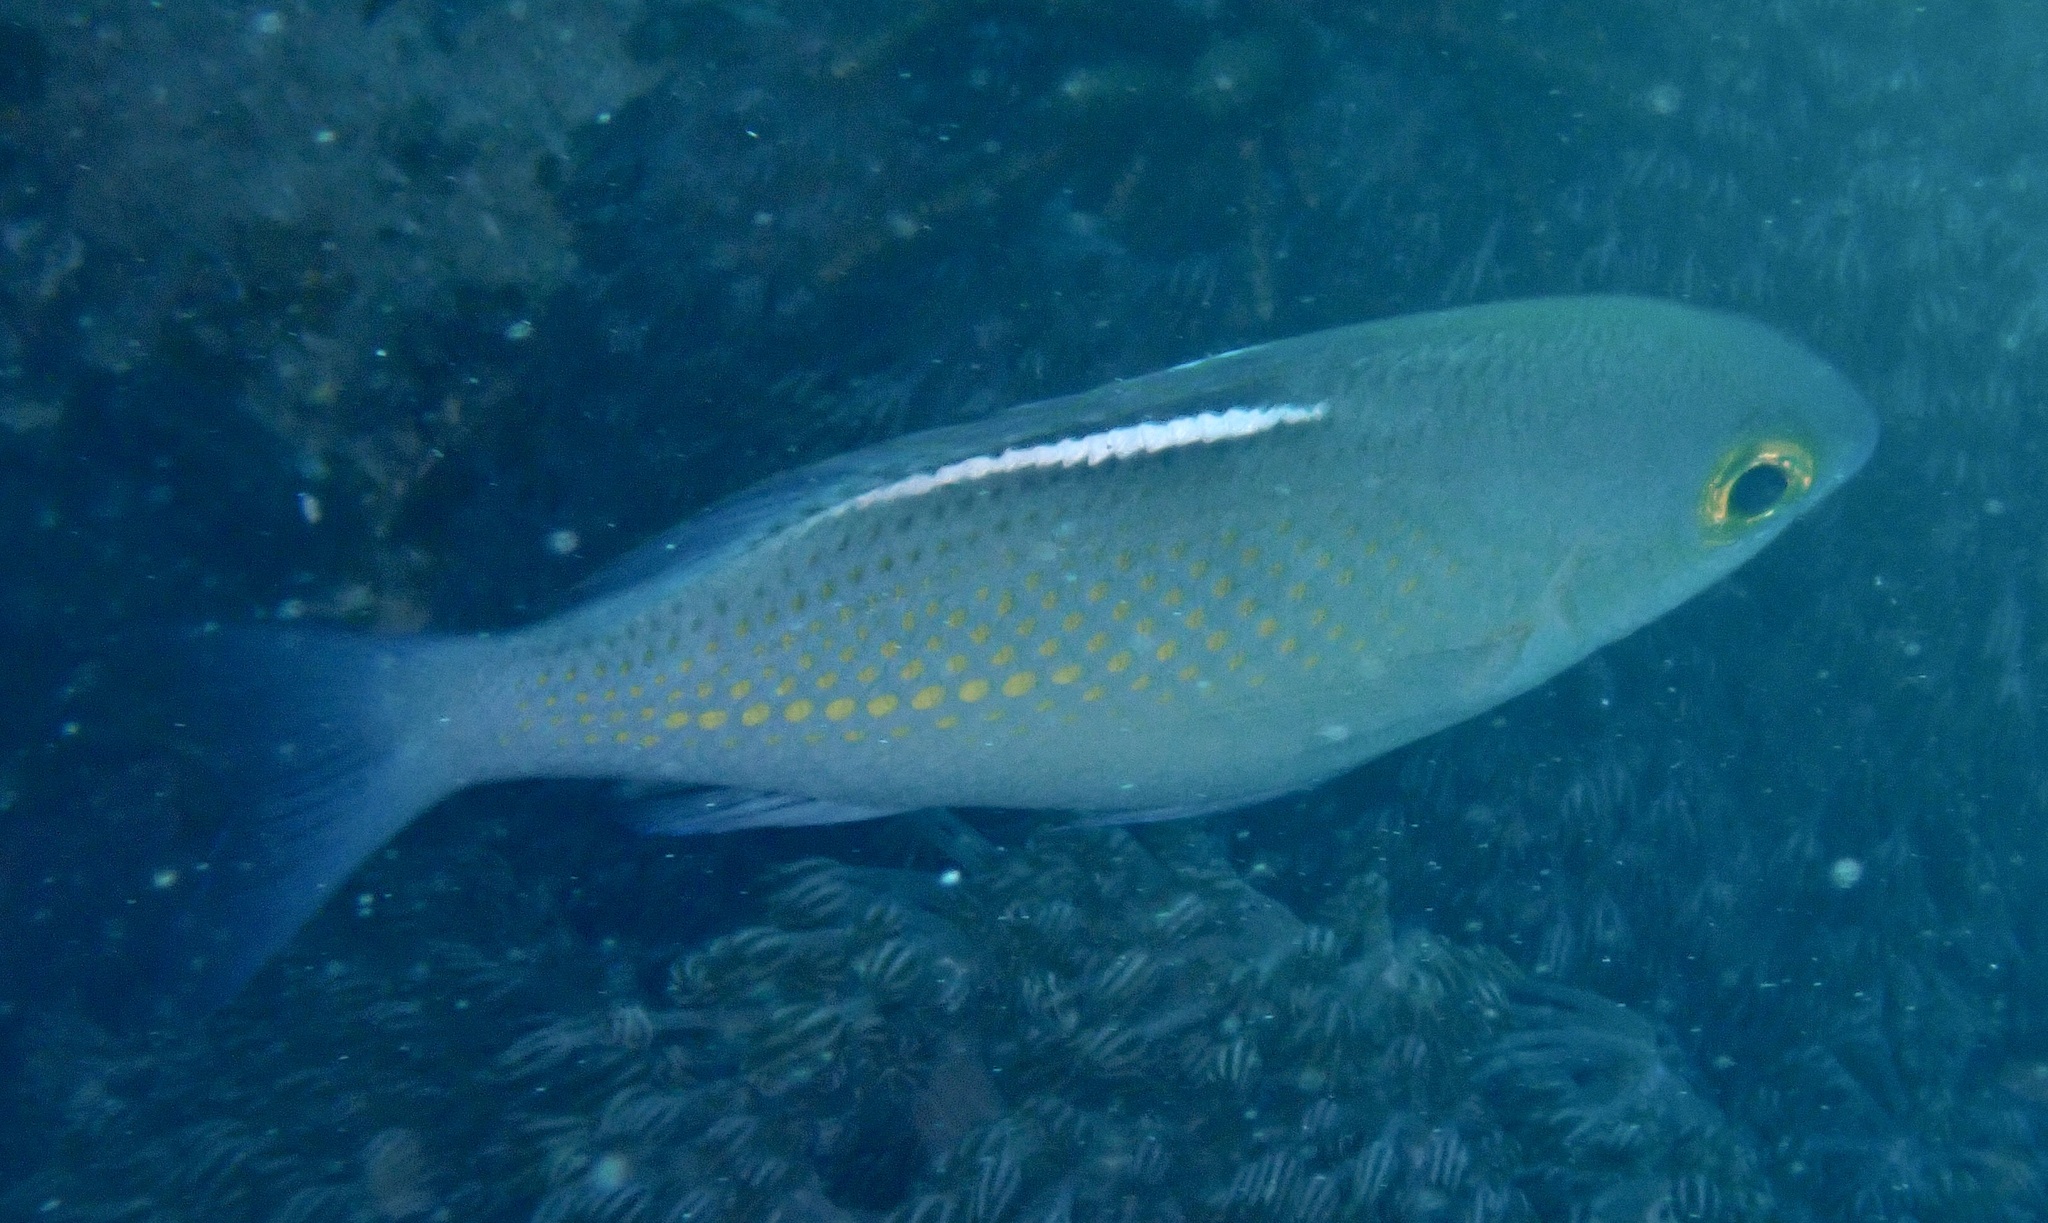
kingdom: Animalia
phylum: Chordata
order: Perciformes
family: Nemipteridae
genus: Scolopsis
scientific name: Scolopsis ciliata
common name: Ciliate spinecheek
